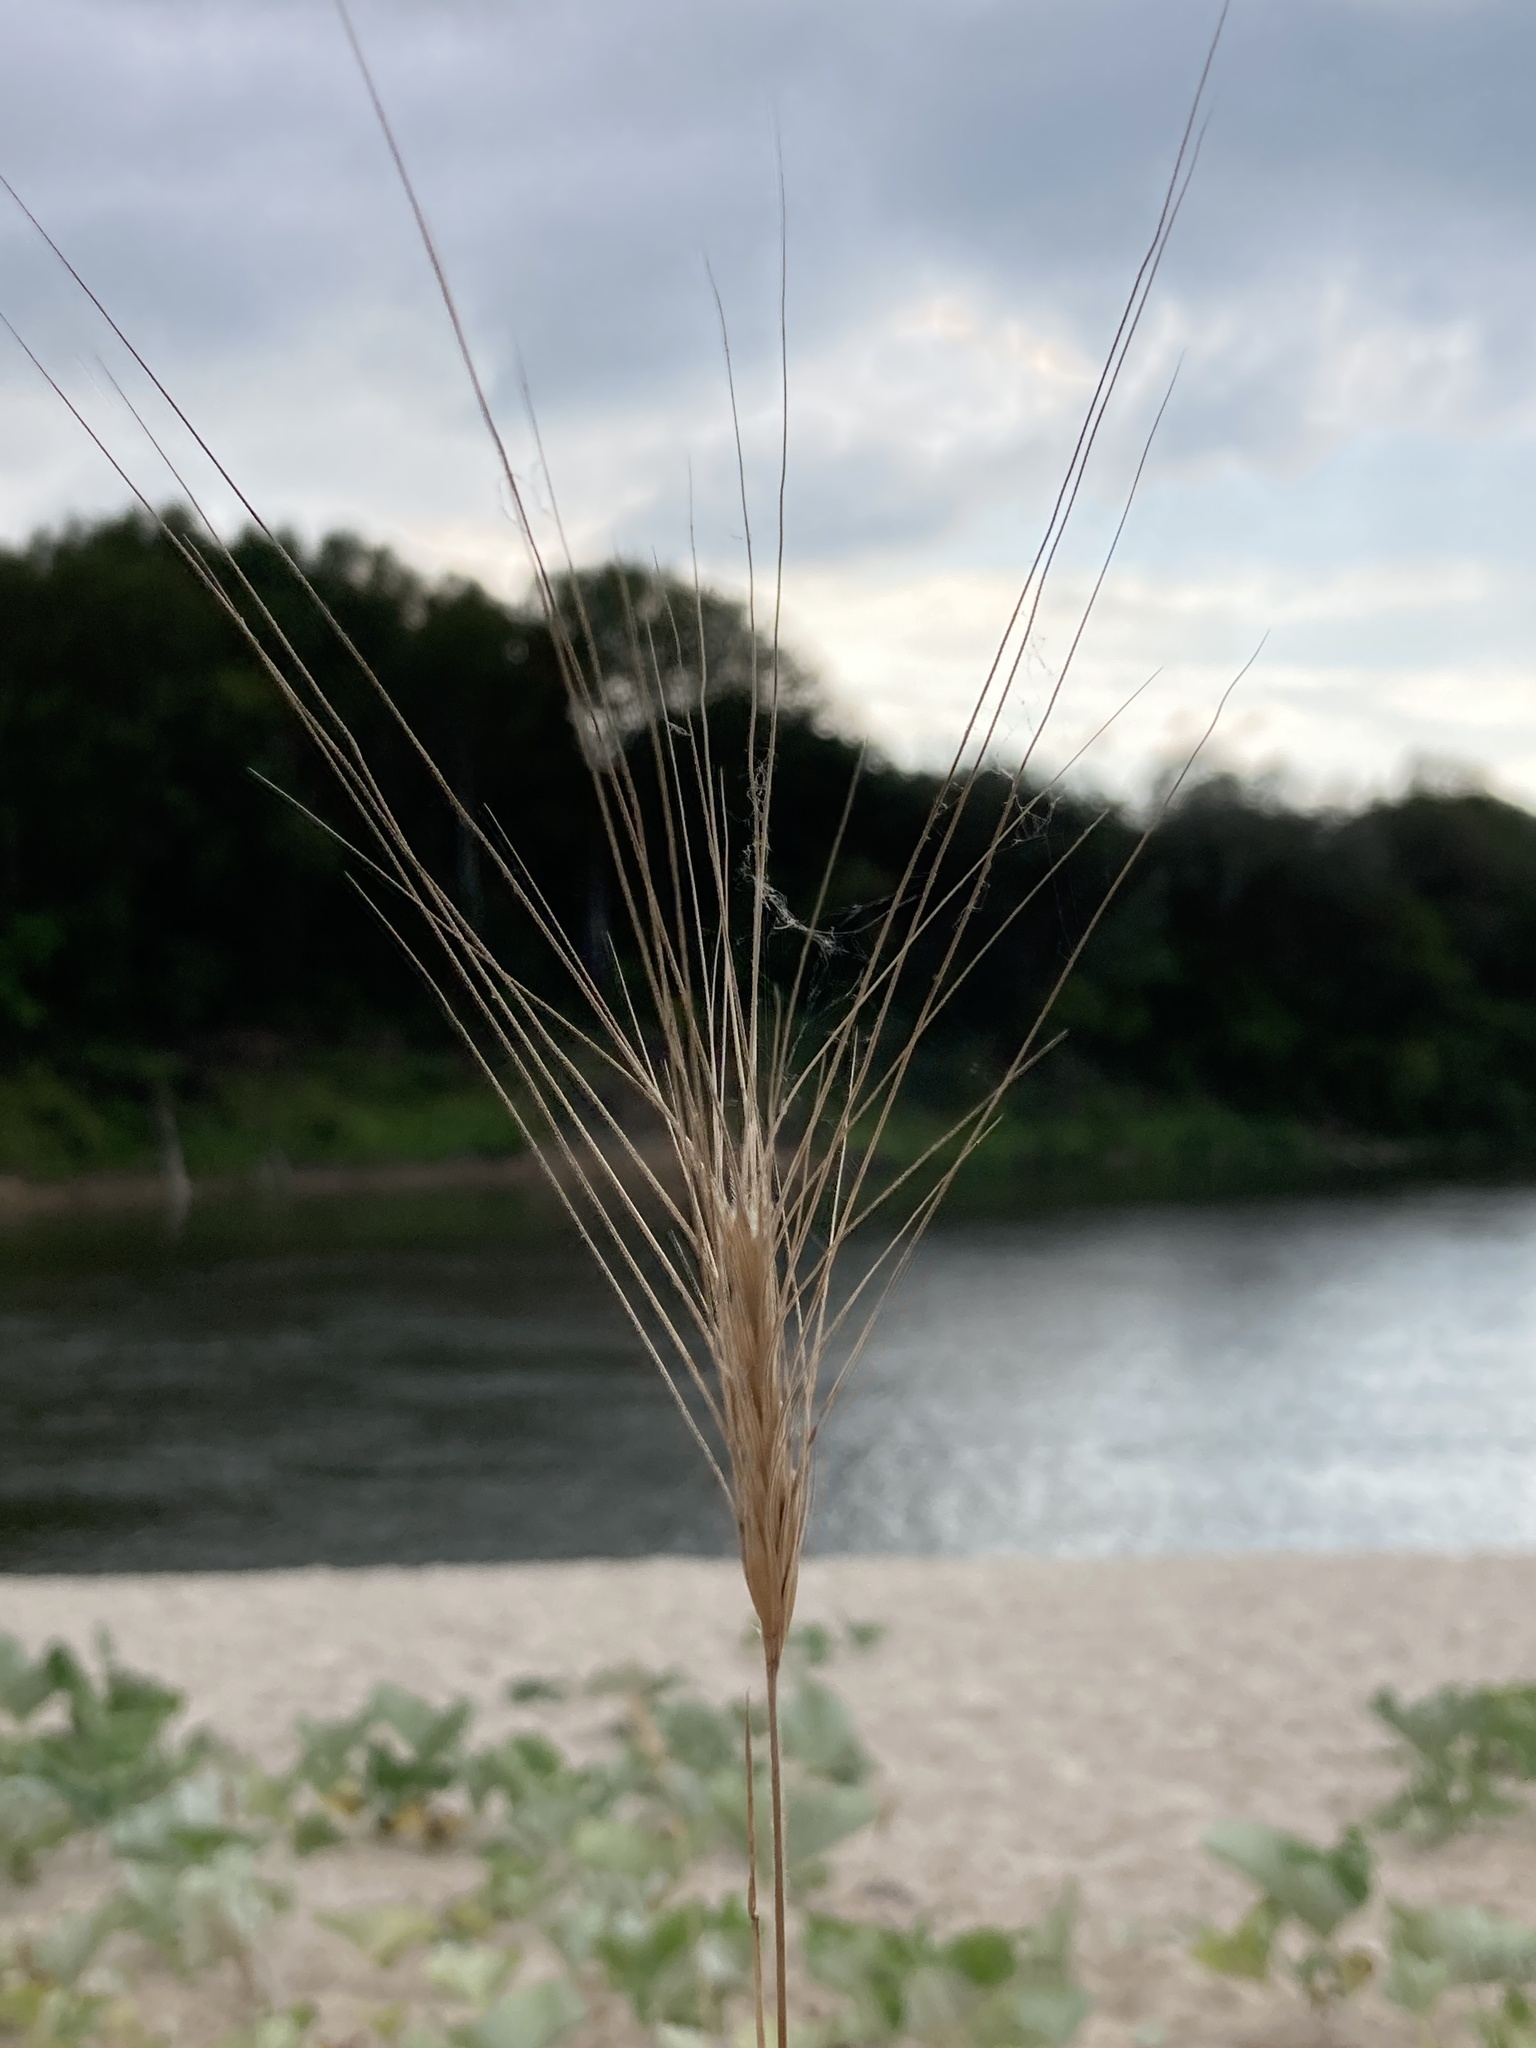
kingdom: Plantae
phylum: Tracheophyta
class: Liliopsida
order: Poales
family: Poaceae
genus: Secale
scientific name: Secale sylvestre
